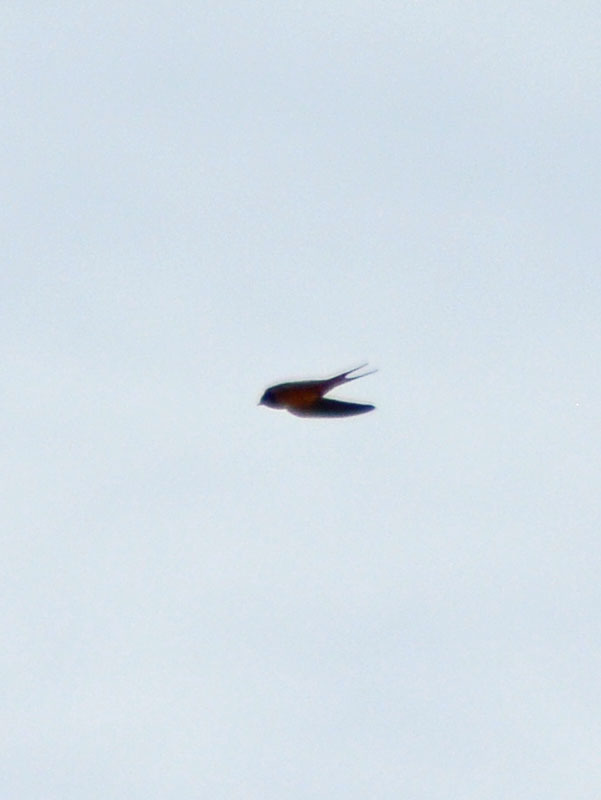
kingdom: Animalia
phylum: Chordata
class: Aves
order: Passeriformes
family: Hirundinidae
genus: Hirundo
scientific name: Hirundo rustica
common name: Barn swallow
